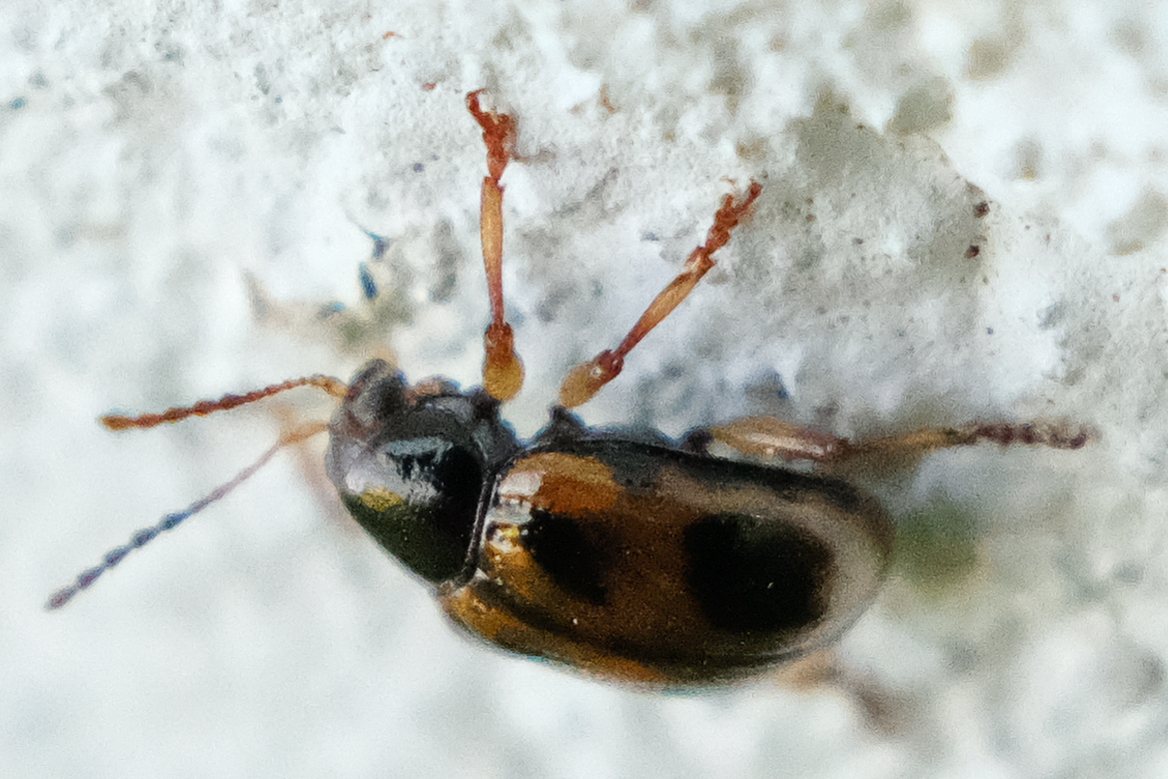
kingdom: Animalia
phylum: Arthropoda
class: Insecta
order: Coleoptera
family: Chrysomelidae
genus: Paria
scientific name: Paria quadrinotata
